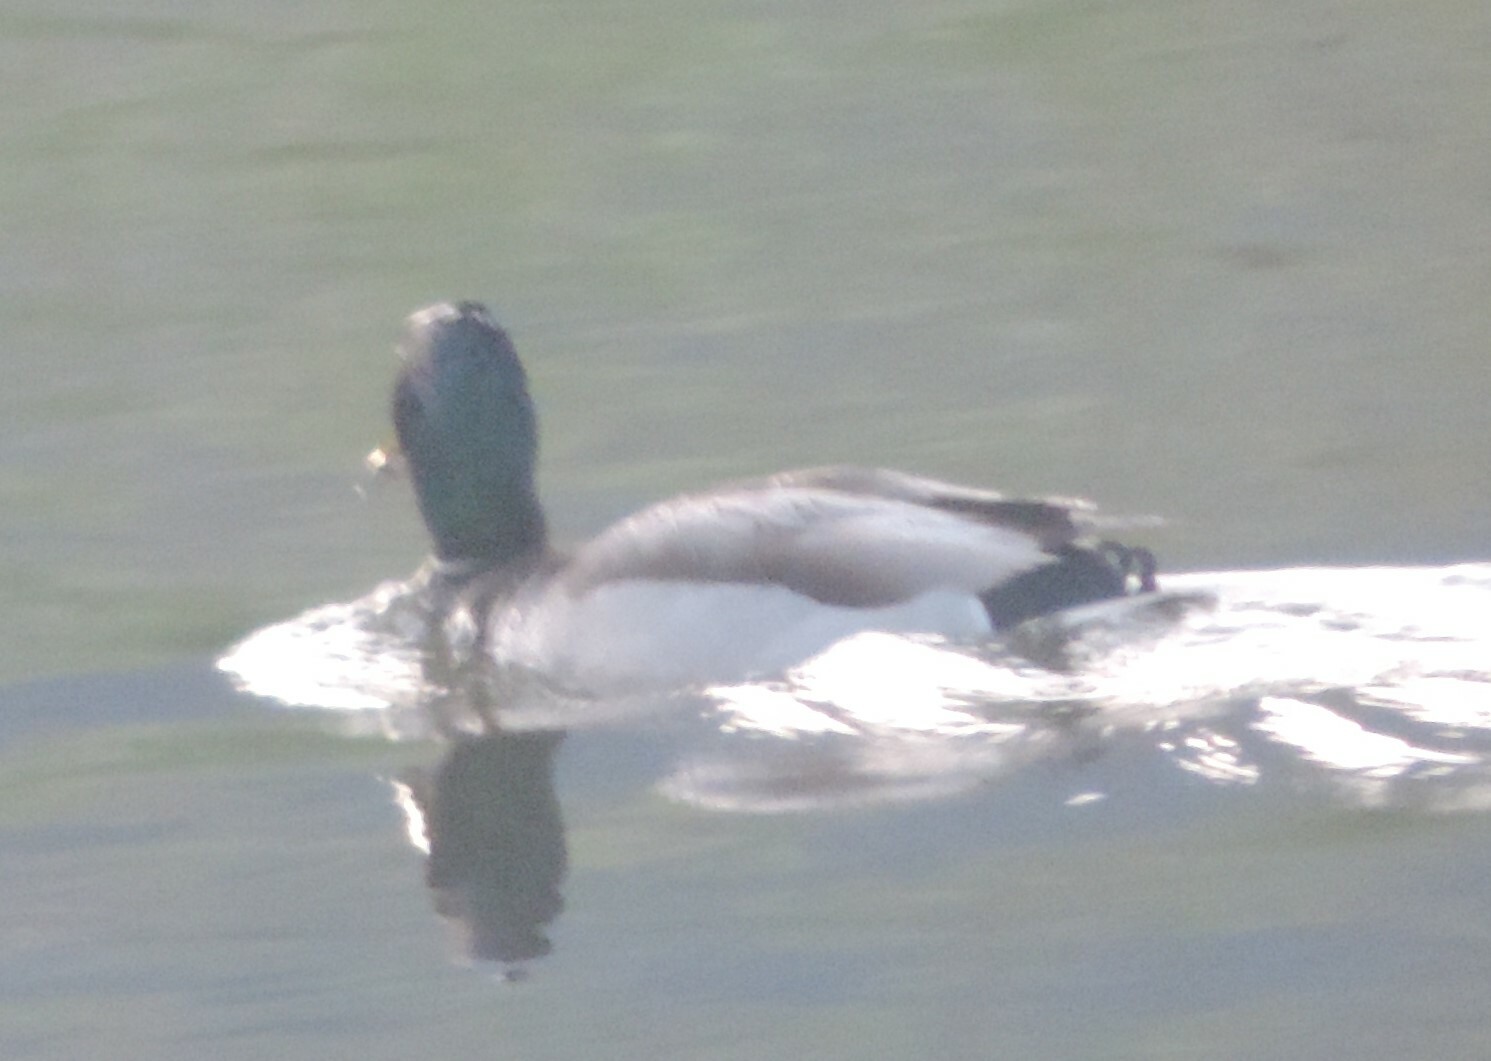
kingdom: Animalia
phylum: Chordata
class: Aves
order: Anseriformes
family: Anatidae
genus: Anas
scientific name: Anas platyrhynchos
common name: Mallard
